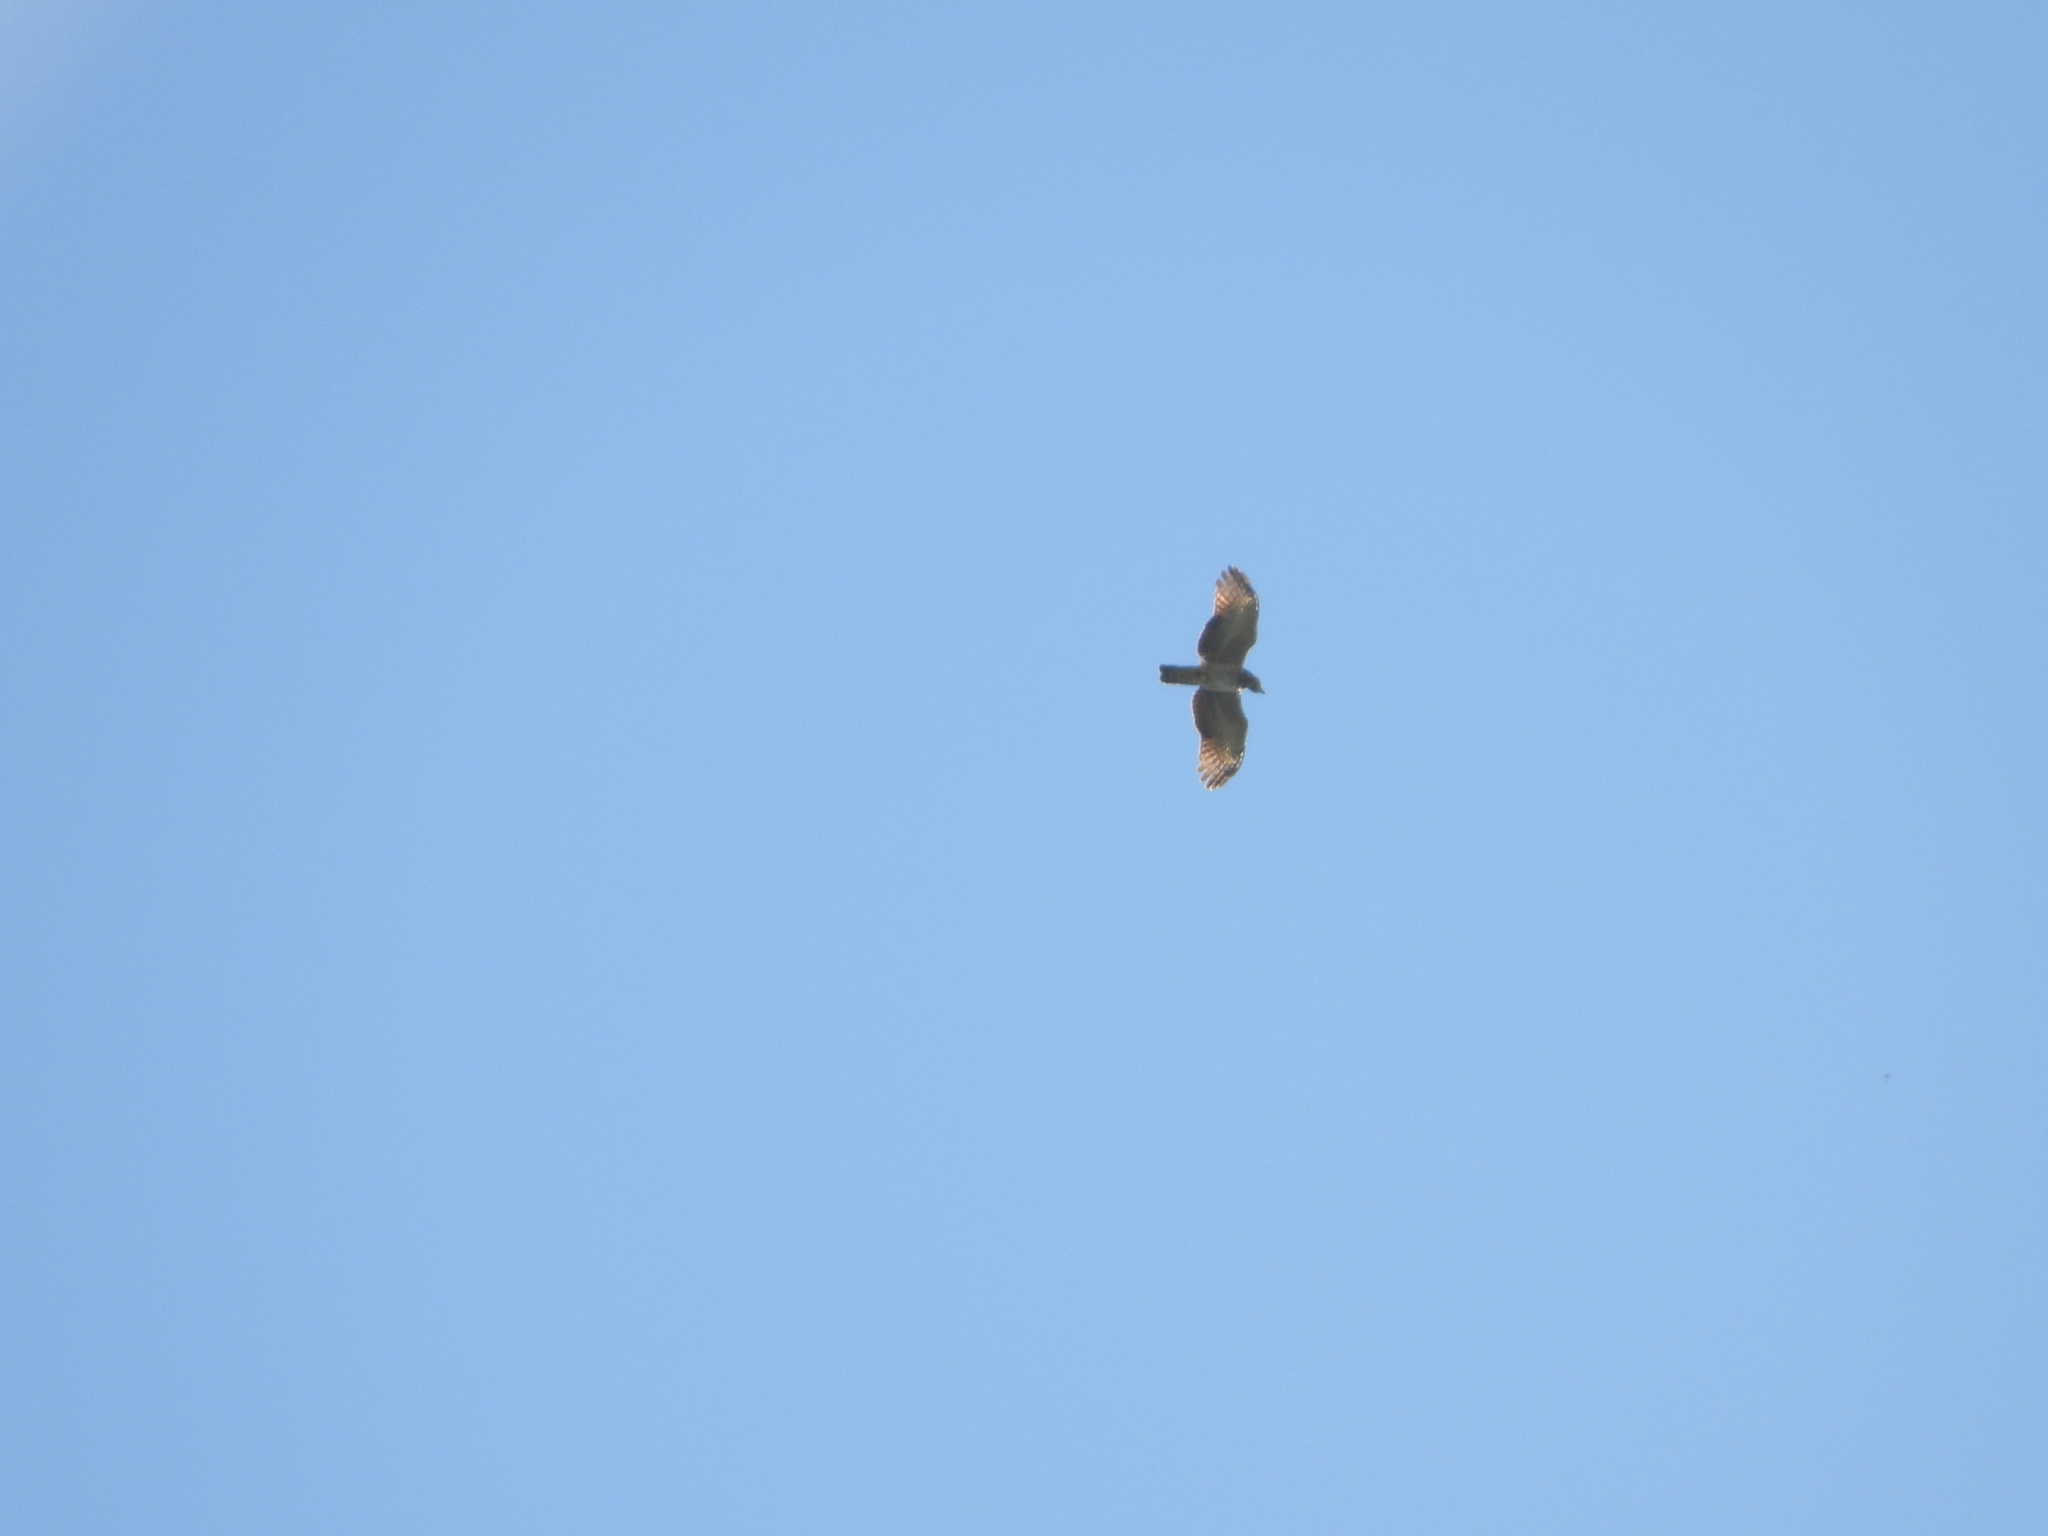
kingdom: Animalia
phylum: Chordata
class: Aves
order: Accipitriformes
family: Accipitridae
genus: Chondrohierax
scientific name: Chondrohierax uncinatus
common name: Hook-billed kite
